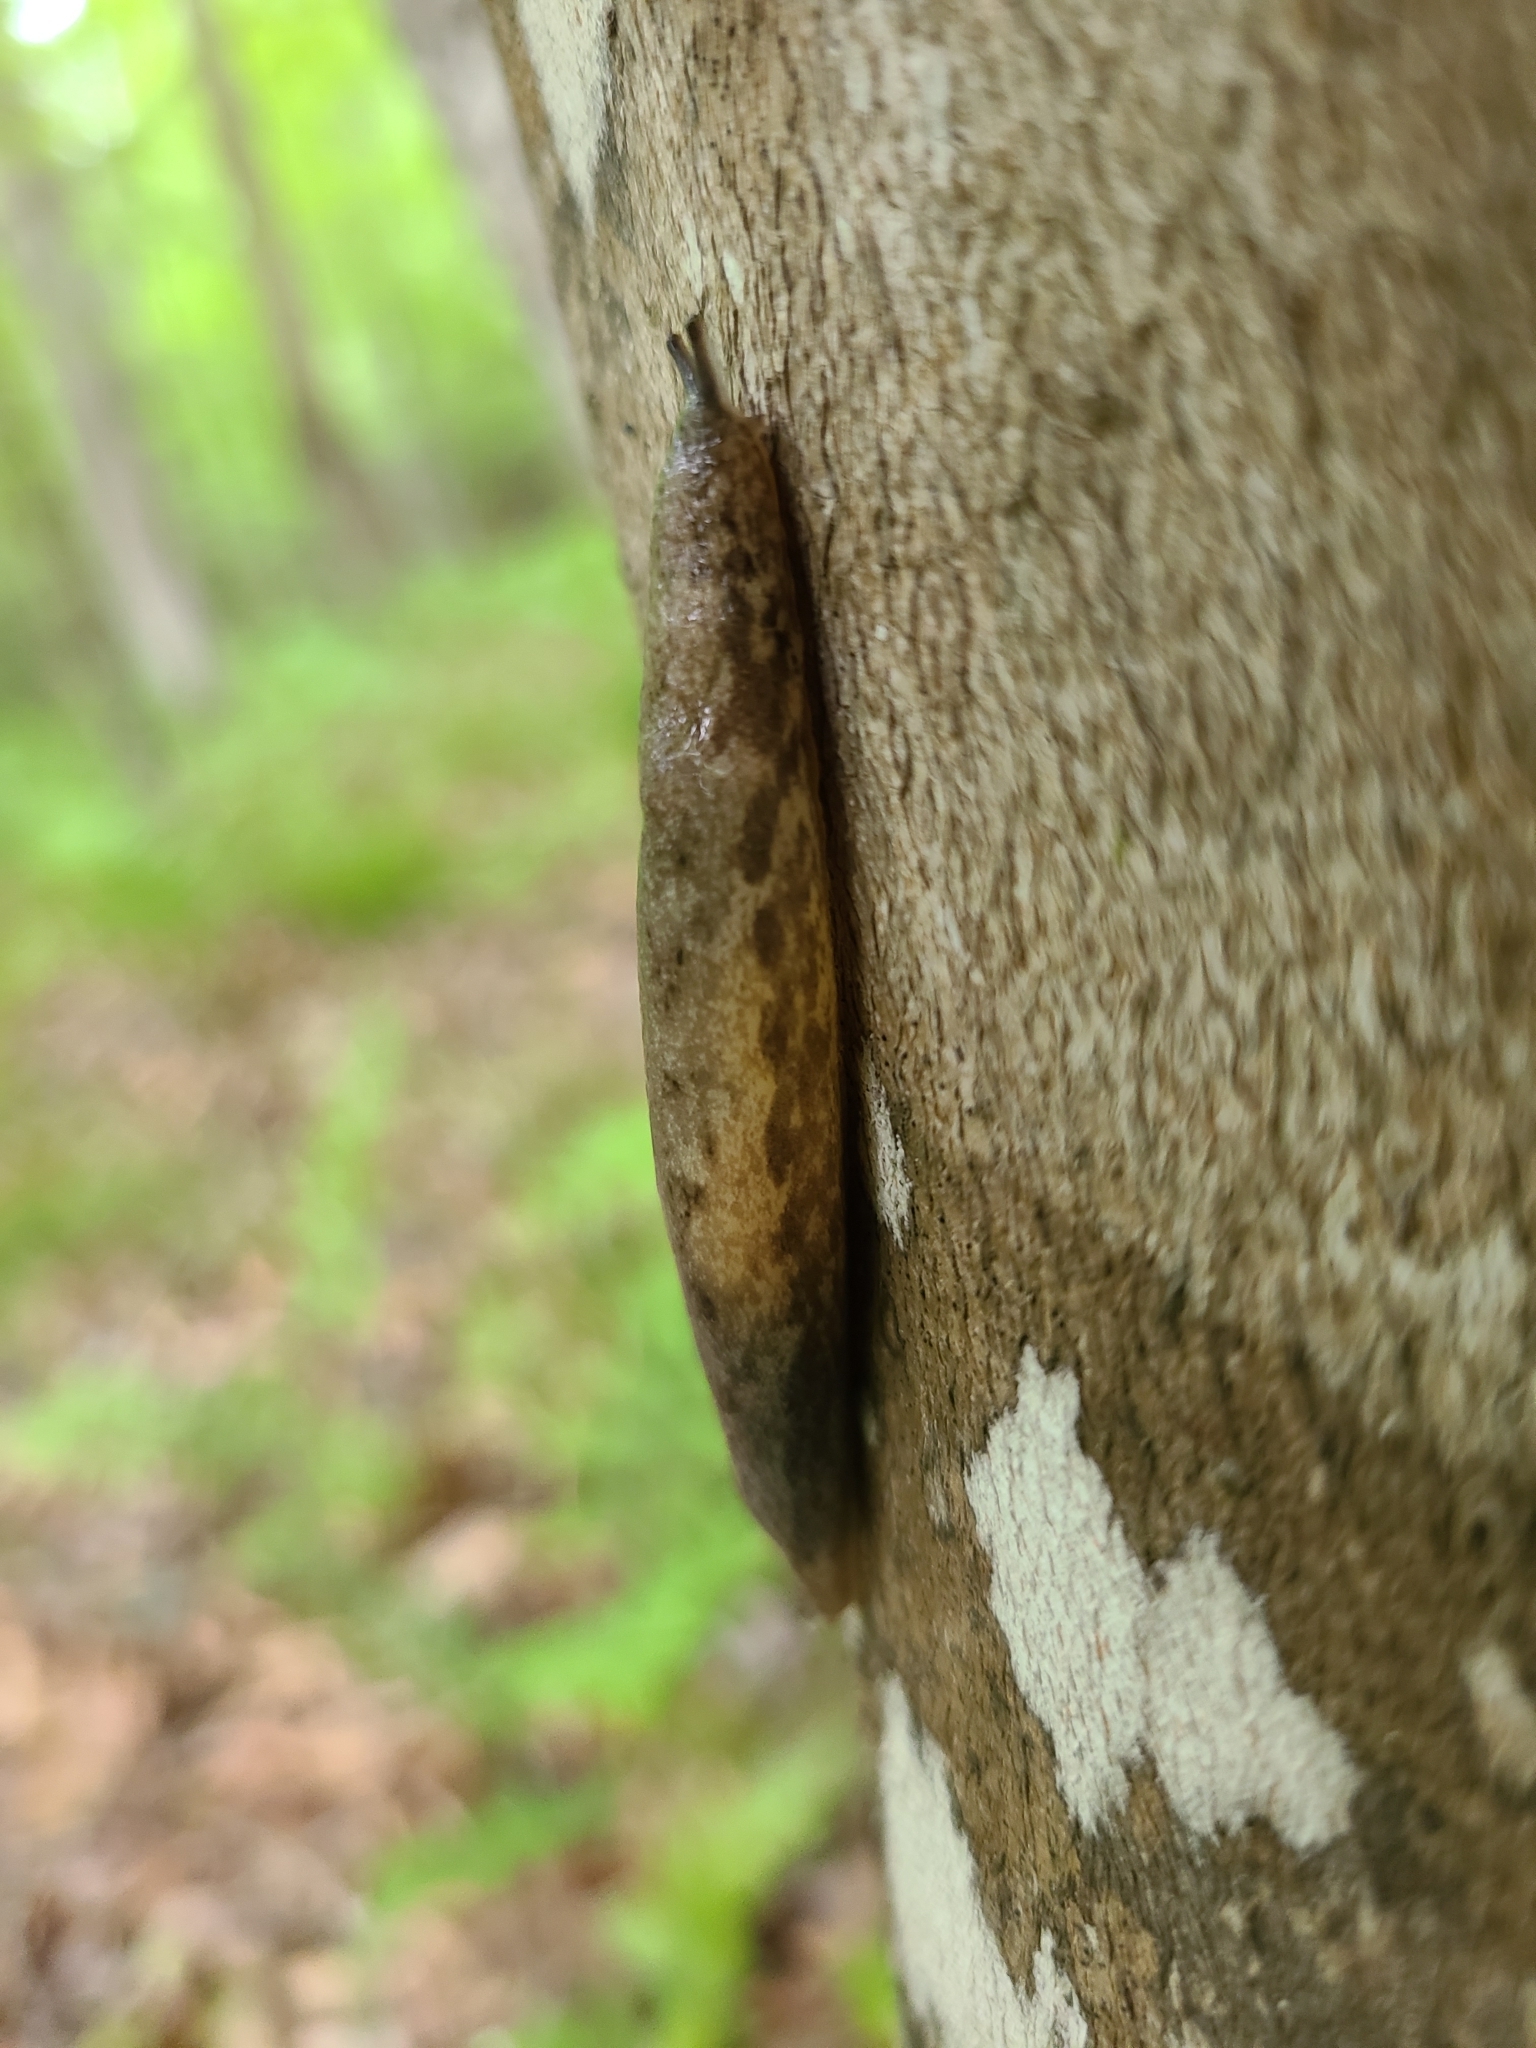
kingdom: Animalia
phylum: Mollusca
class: Gastropoda
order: Stylommatophora
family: Philomycidae
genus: Megapallifera
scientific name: Megapallifera mutabilis
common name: Changeable mantleslug
